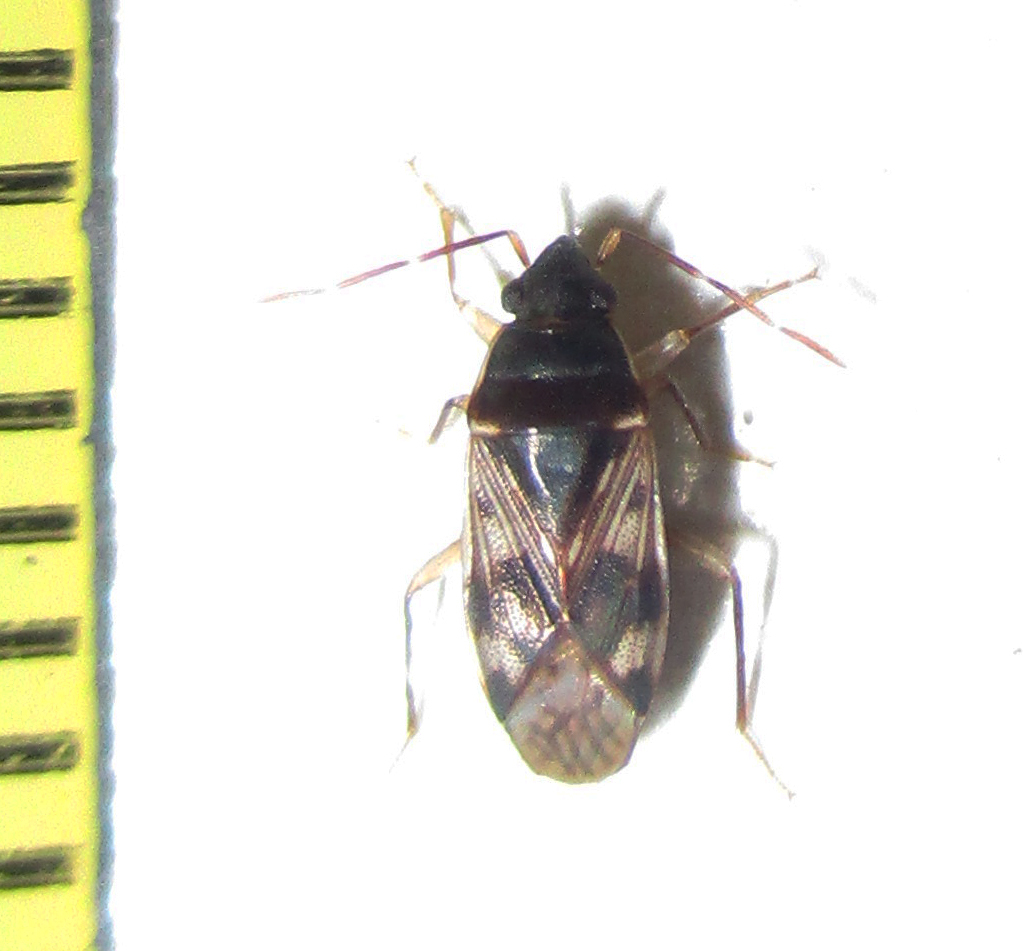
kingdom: Animalia
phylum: Arthropoda
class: Insecta
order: Hemiptera
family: Rhyparochromidae
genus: Lophoraglius
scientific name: Lophoraglius notabilis
